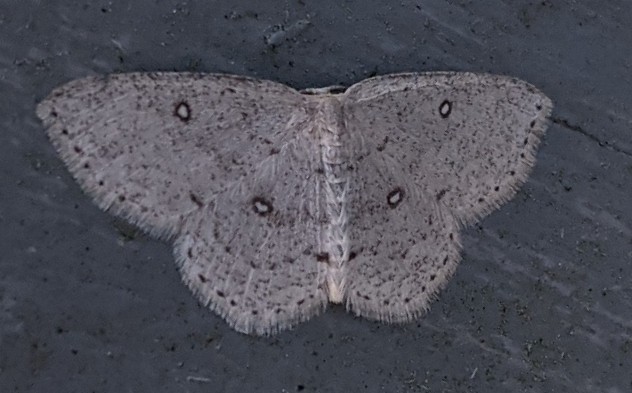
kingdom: Animalia
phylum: Arthropoda
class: Insecta
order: Lepidoptera
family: Geometridae
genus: Cyclophora
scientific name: Cyclophora pendulinaria
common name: Sweet fern geometer
